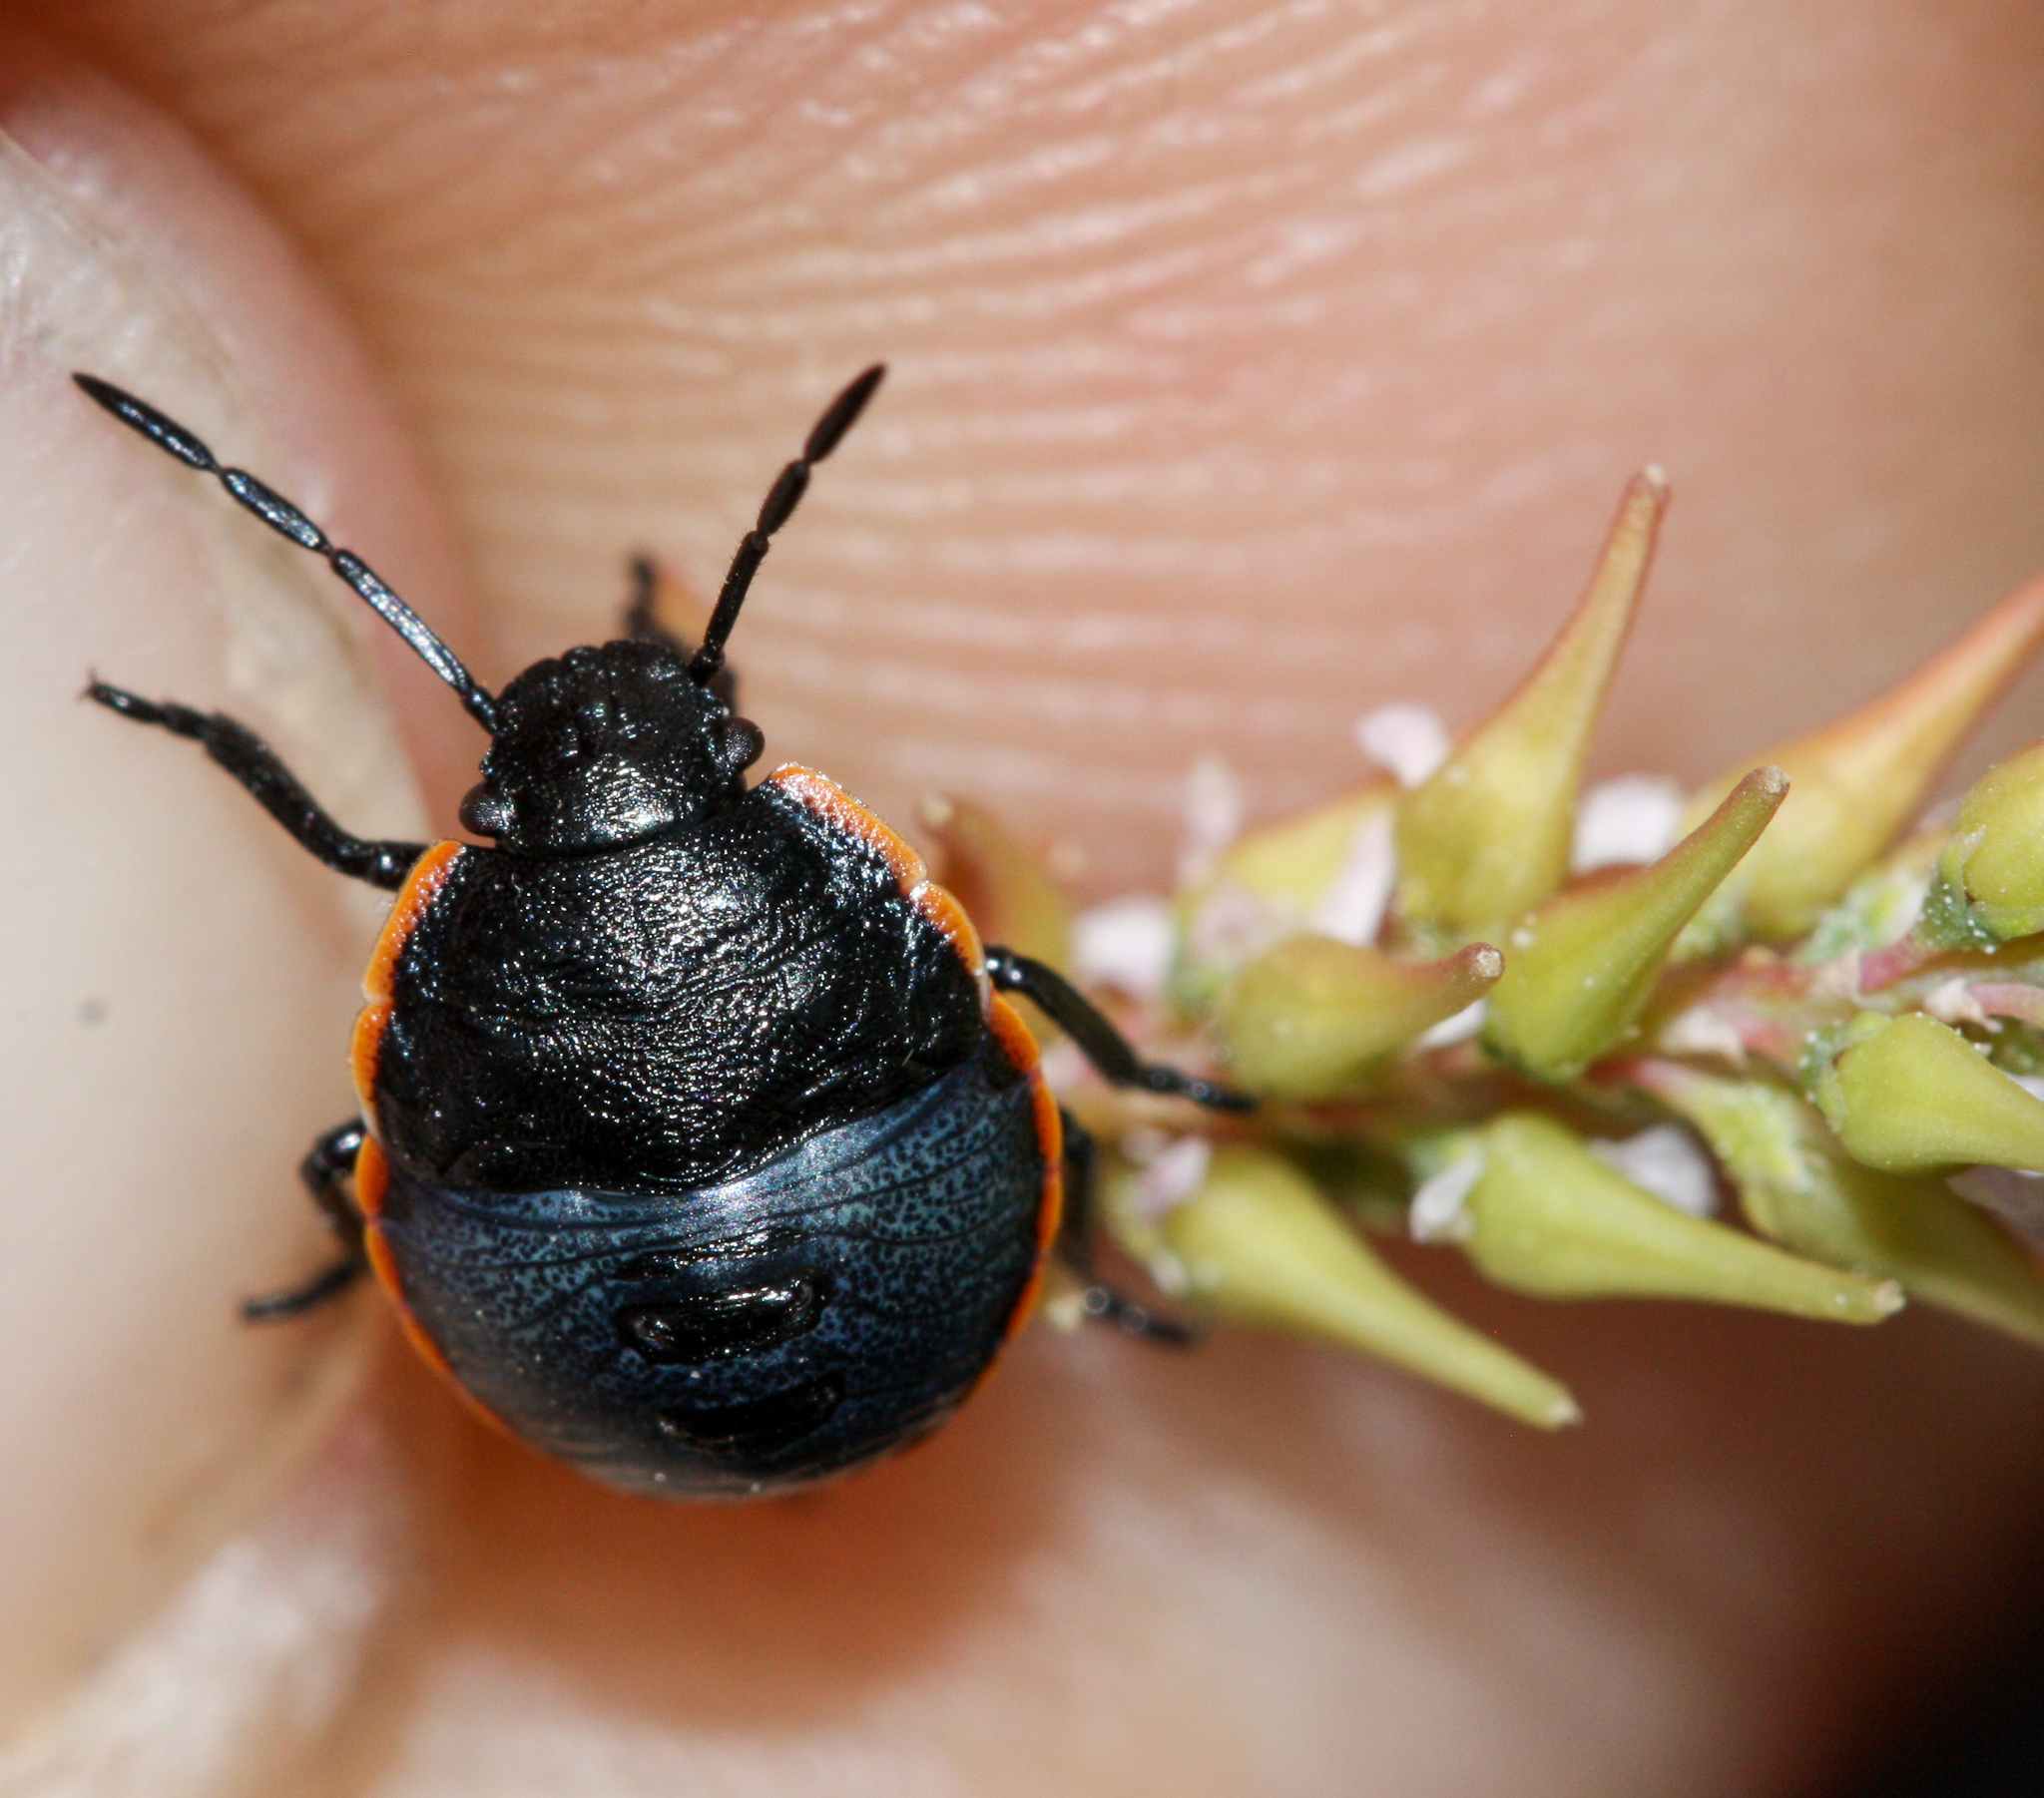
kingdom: Animalia
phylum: Arthropoda
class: Insecta
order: Hemiptera
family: Pentatomidae
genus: Chlorochroa
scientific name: Chlorochroa ligata
